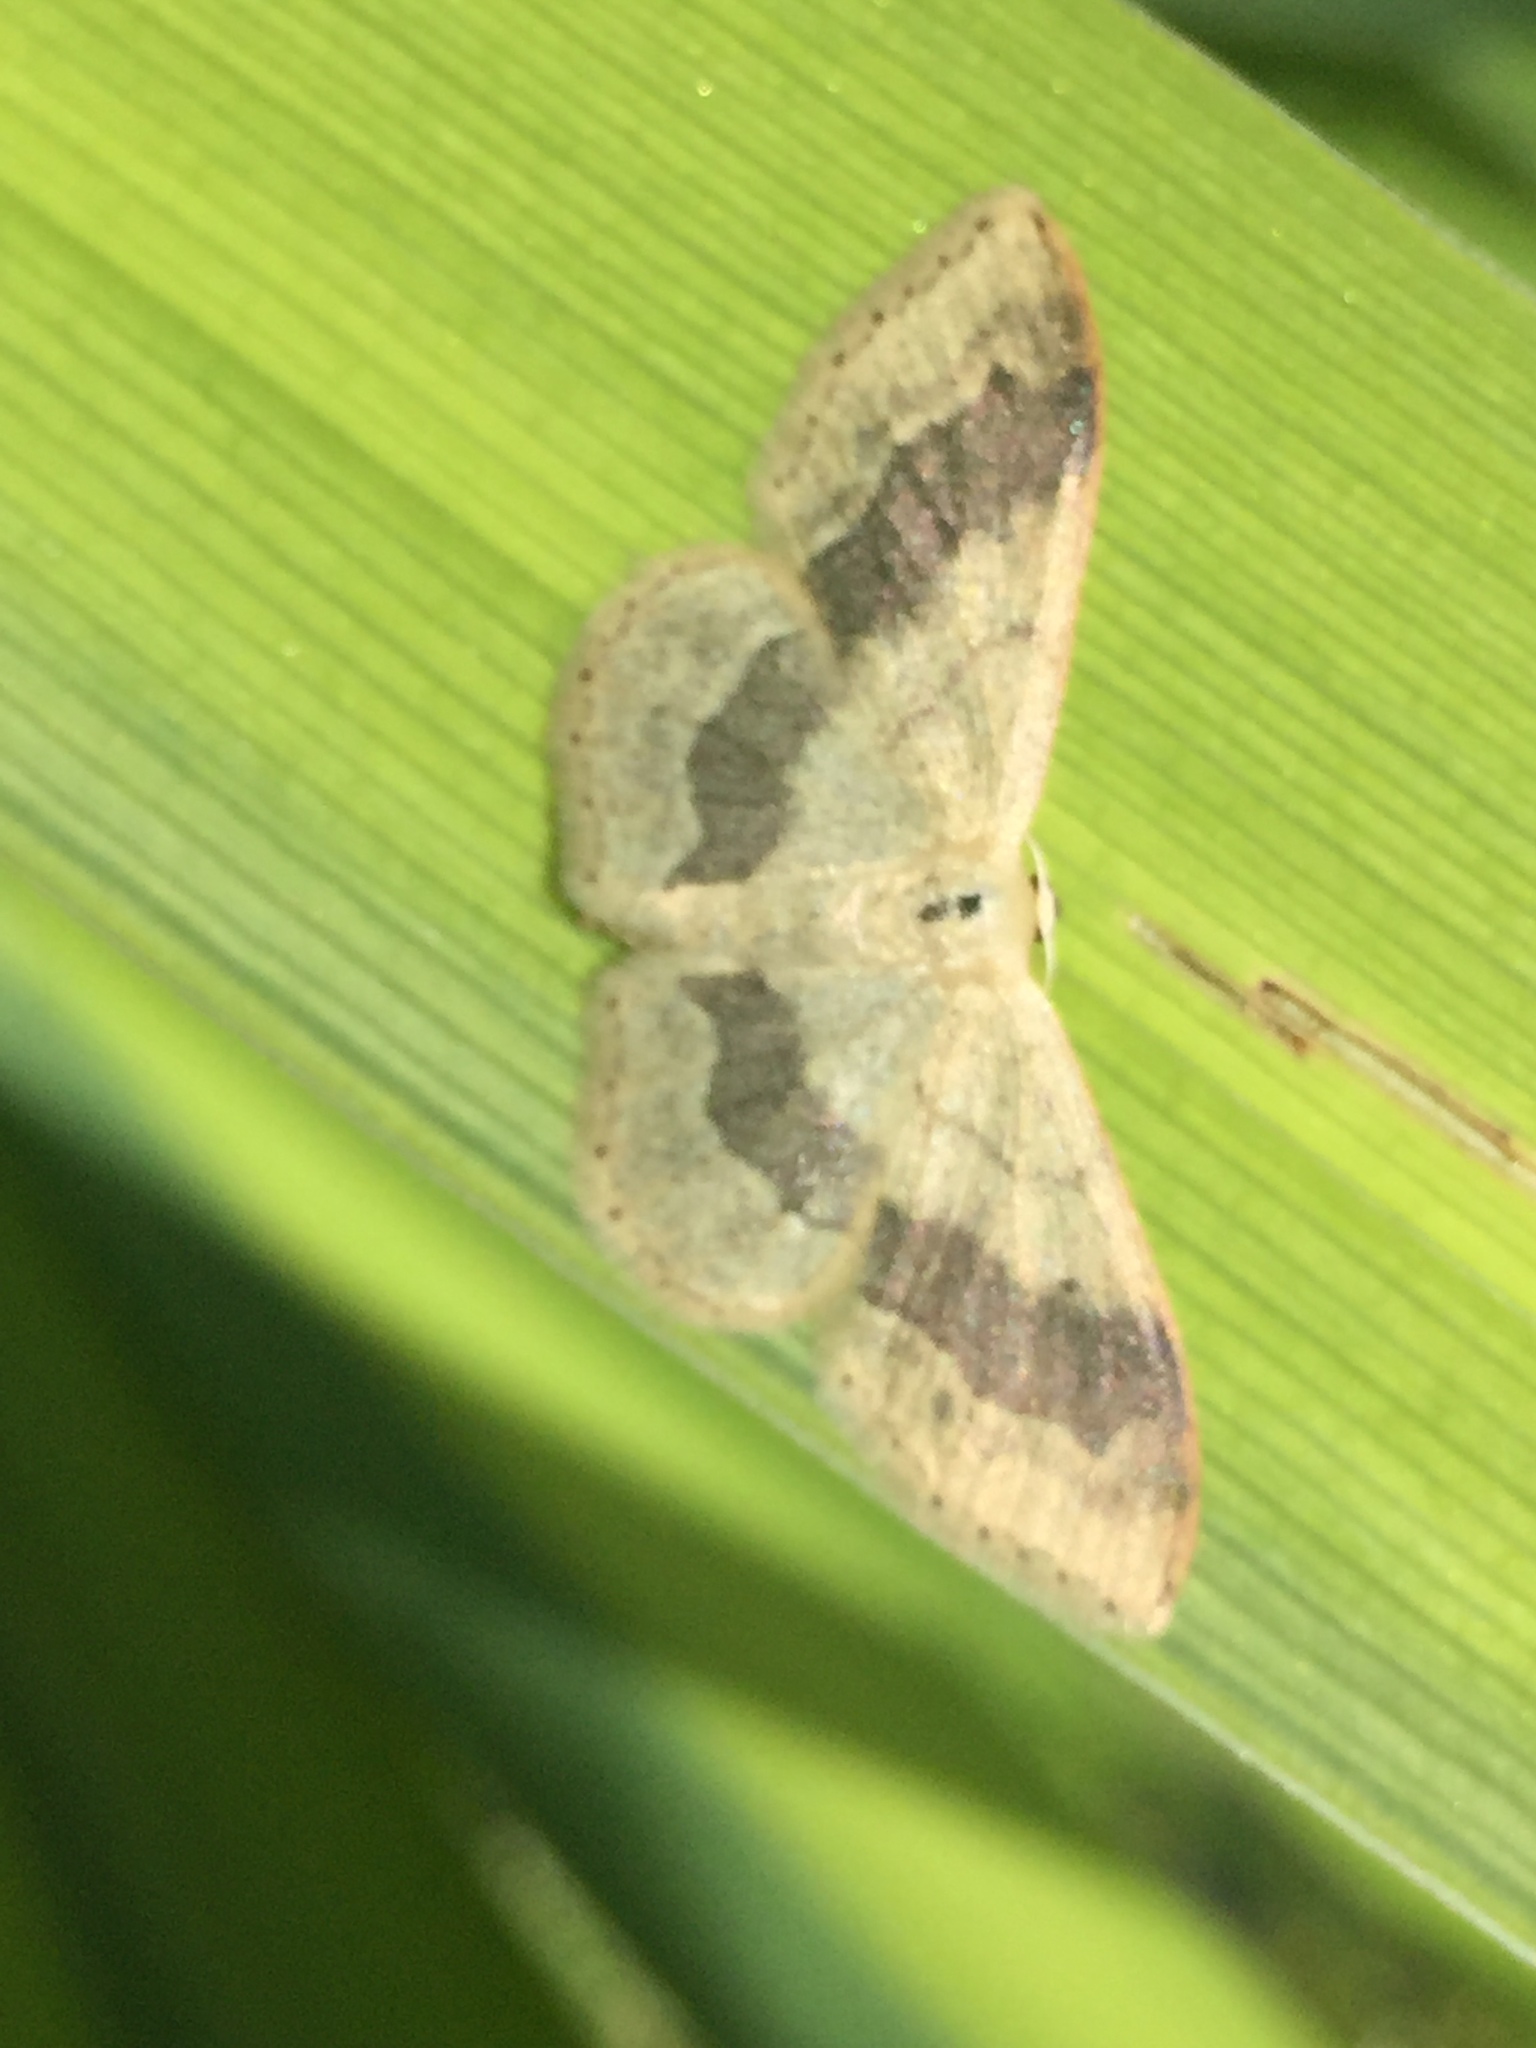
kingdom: Animalia
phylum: Arthropoda
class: Insecta
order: Lepidoptera
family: Geometridae
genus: Idaea
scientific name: Idaea aversata
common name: Riband wave
